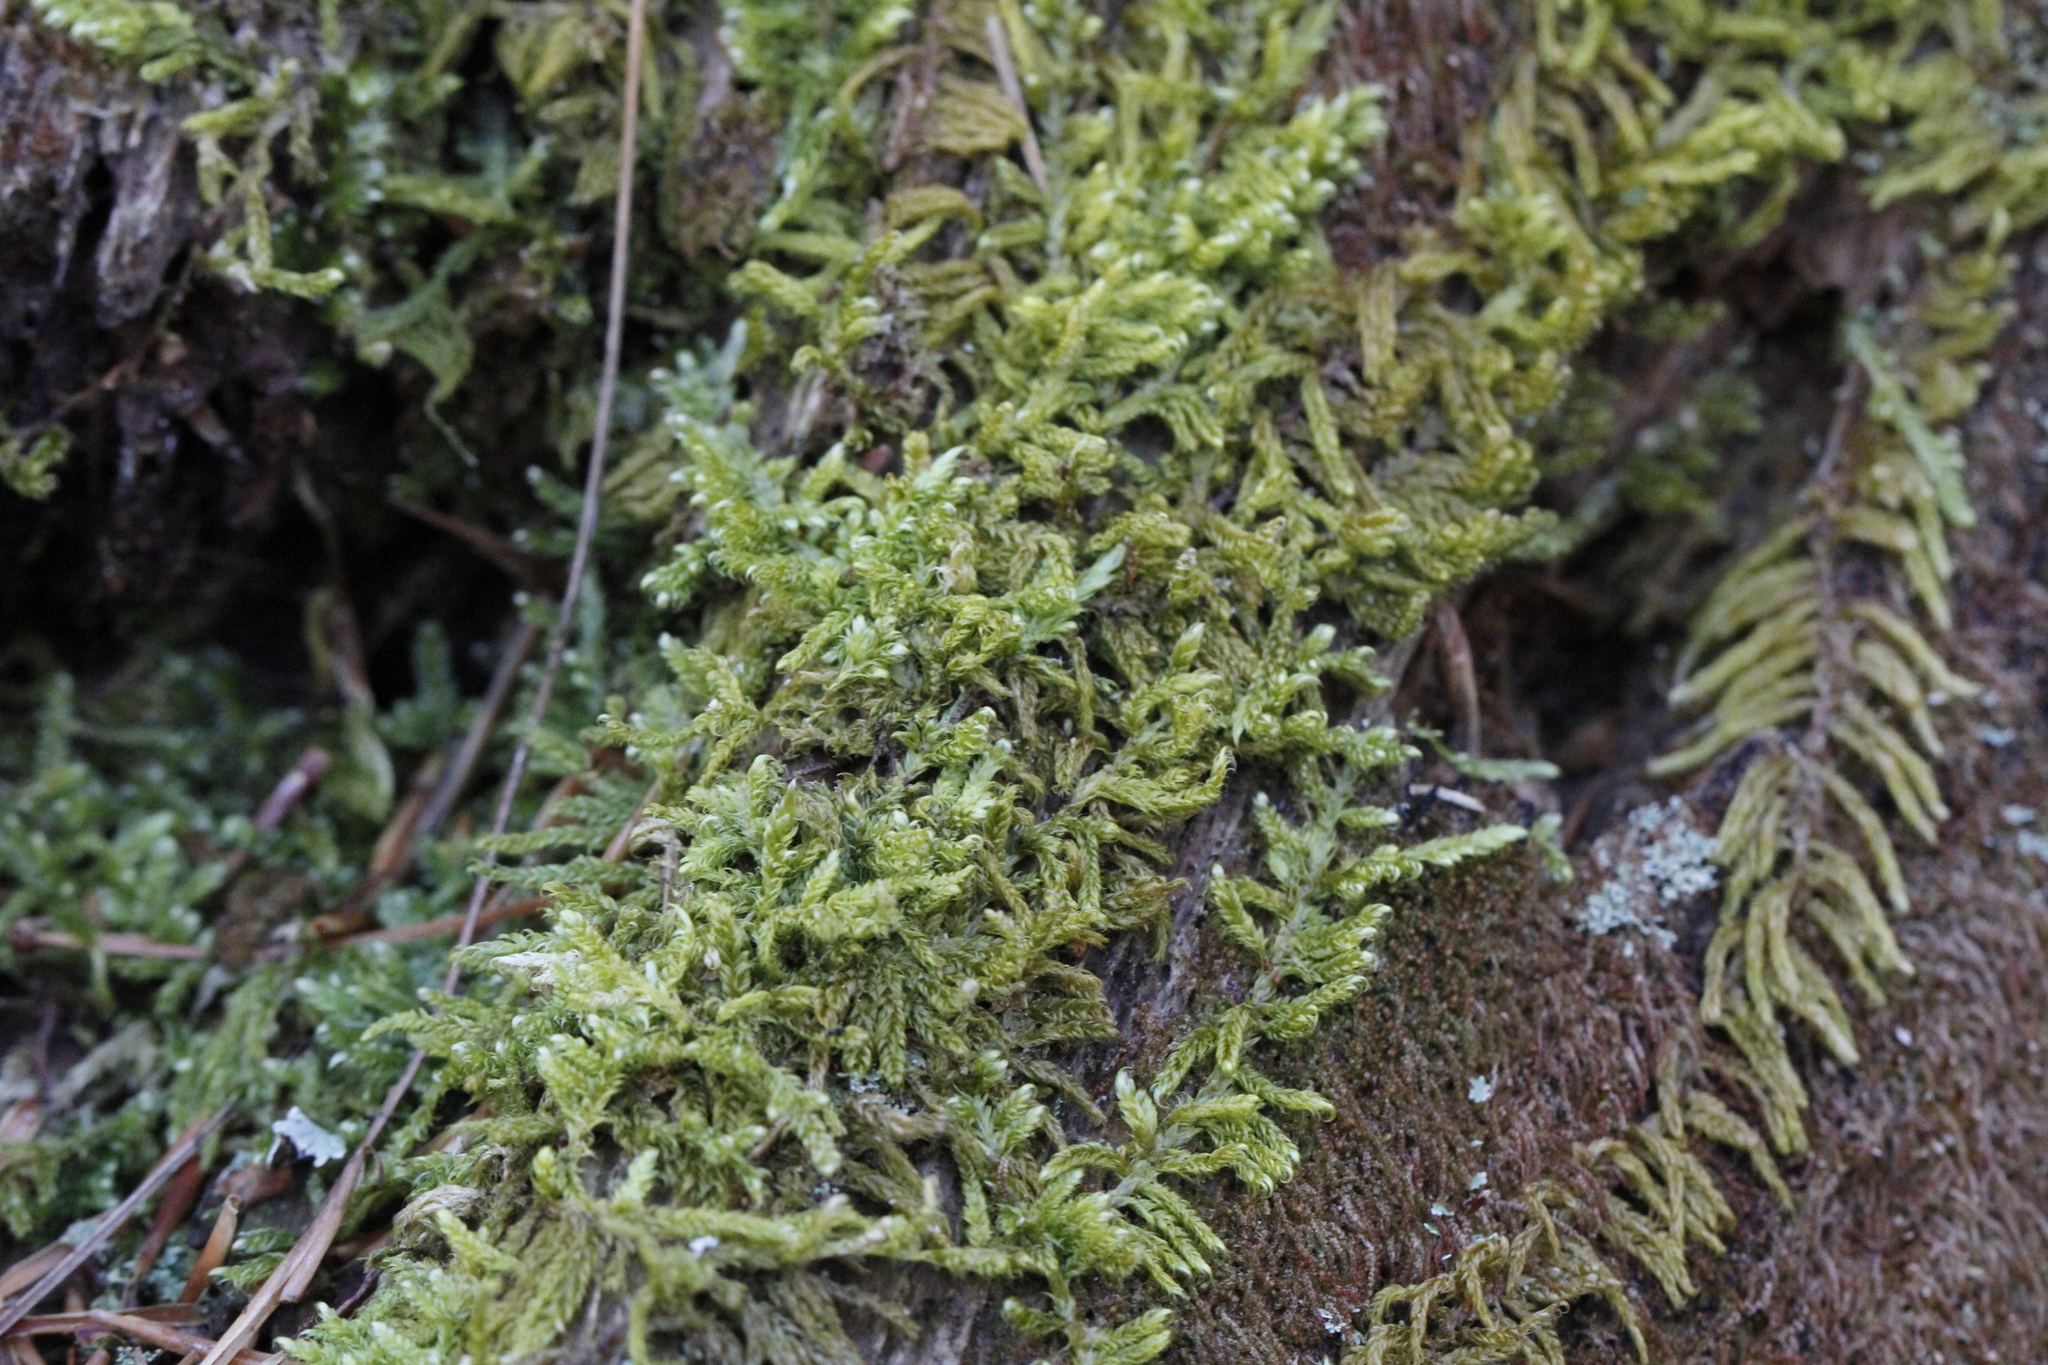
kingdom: Plantae
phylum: Bryophyta
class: Bryopsida
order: Hypnales
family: Callicladiaceae
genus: Callicladium
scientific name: Callicladium imponens
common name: Brocade moss
